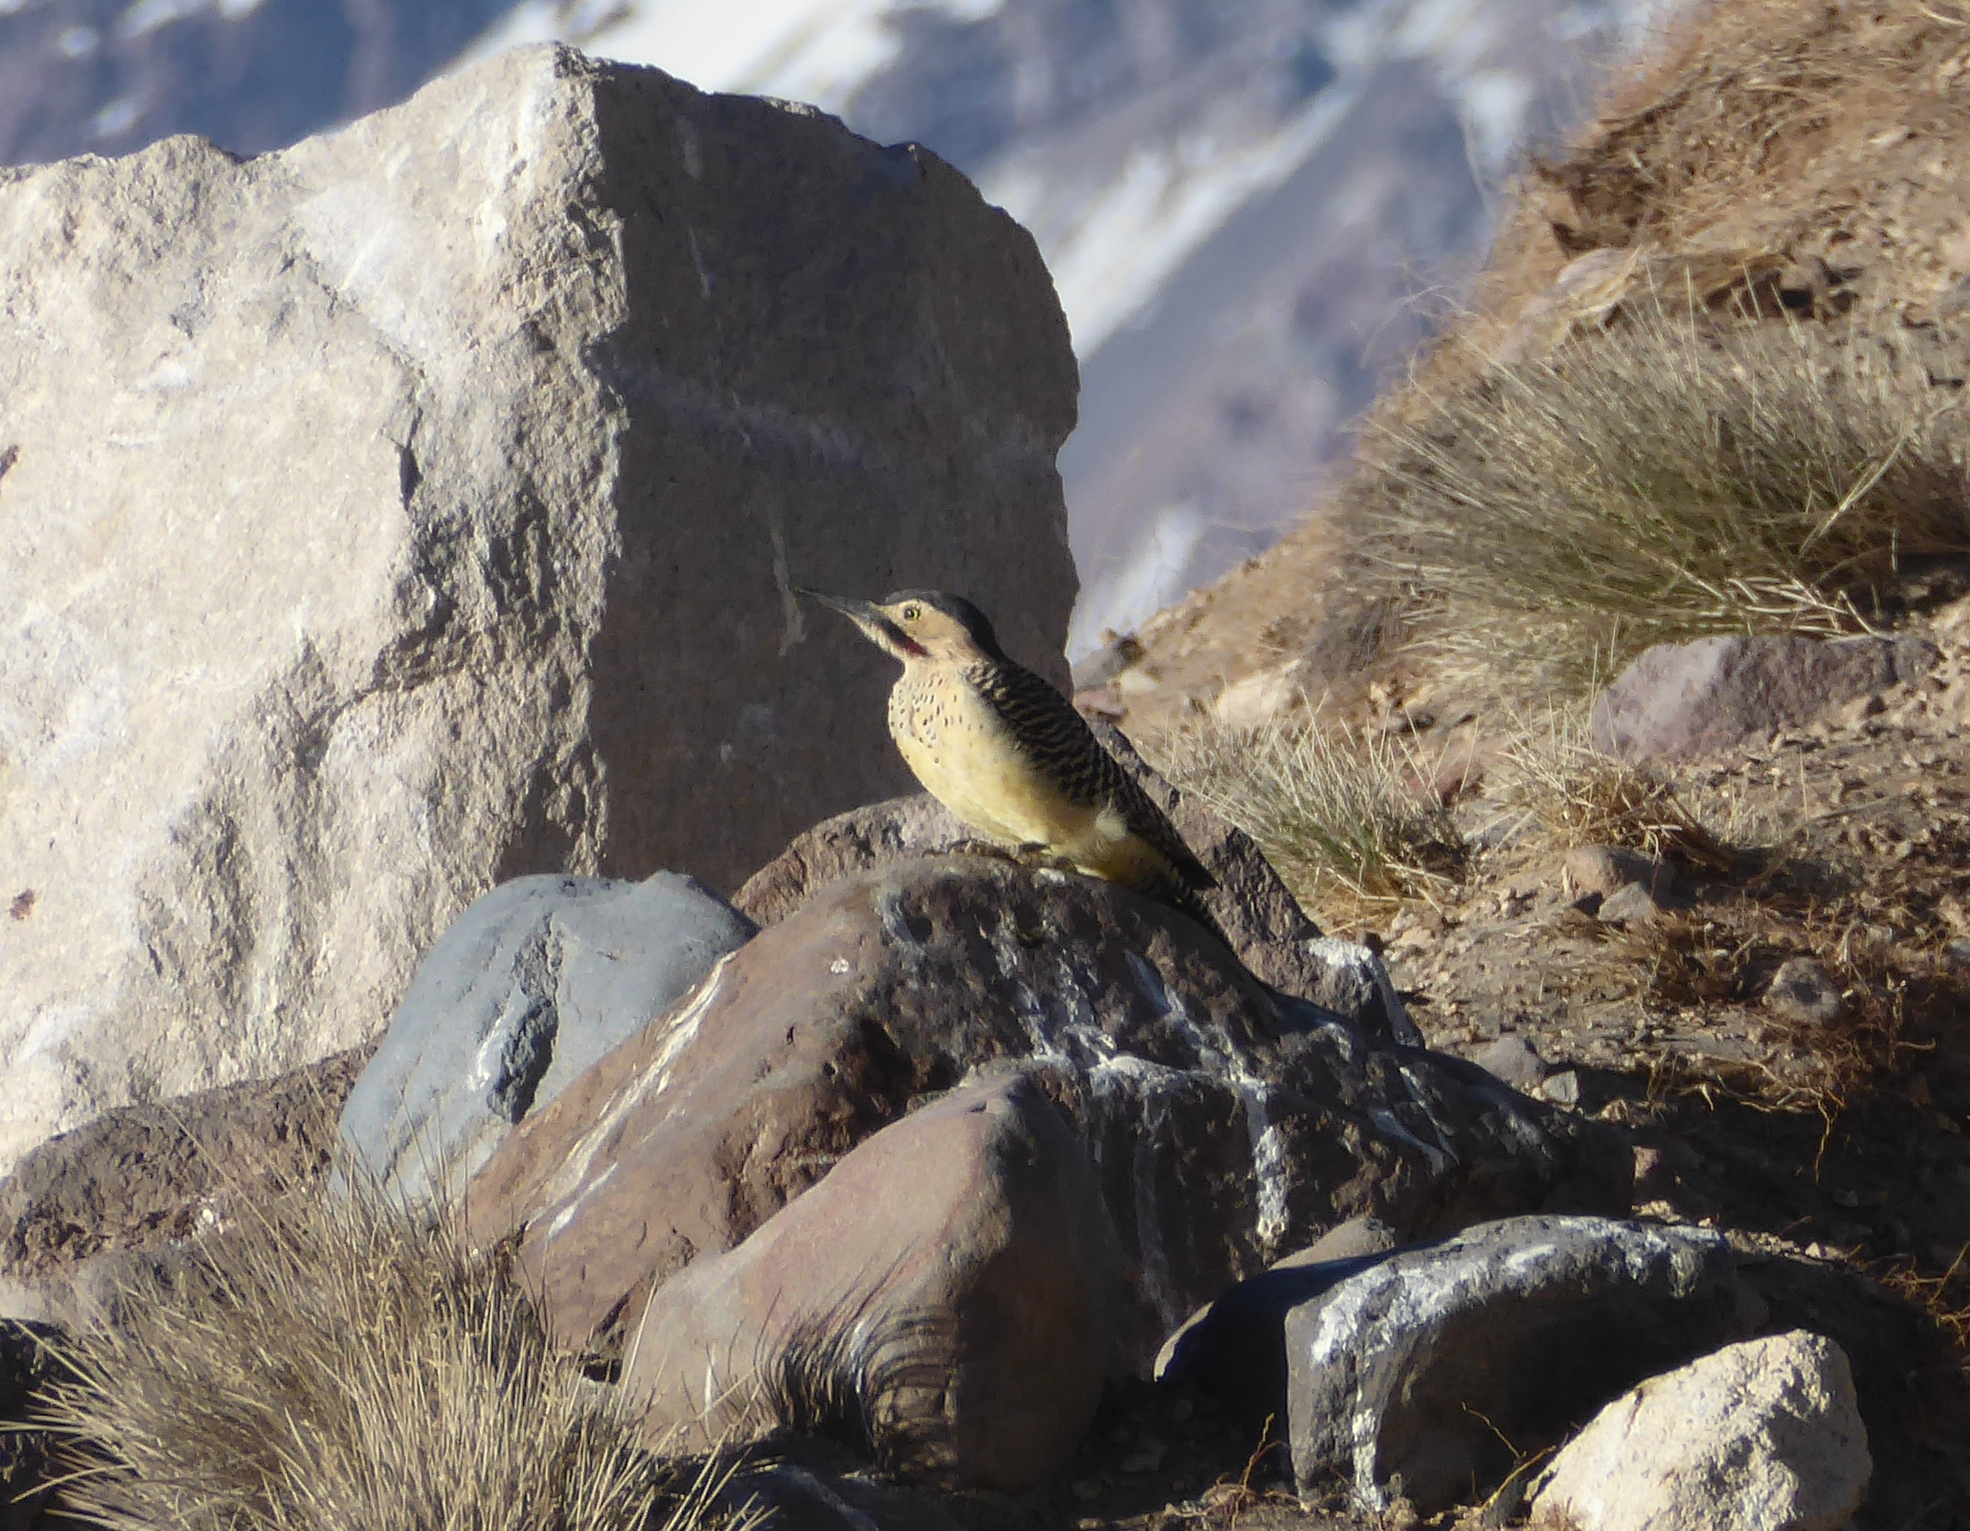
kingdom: Animalia
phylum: Chordata
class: Aves
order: Piciformes
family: Picidae
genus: Colaptes
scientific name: Colaptes rupicola
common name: Andean flicker
